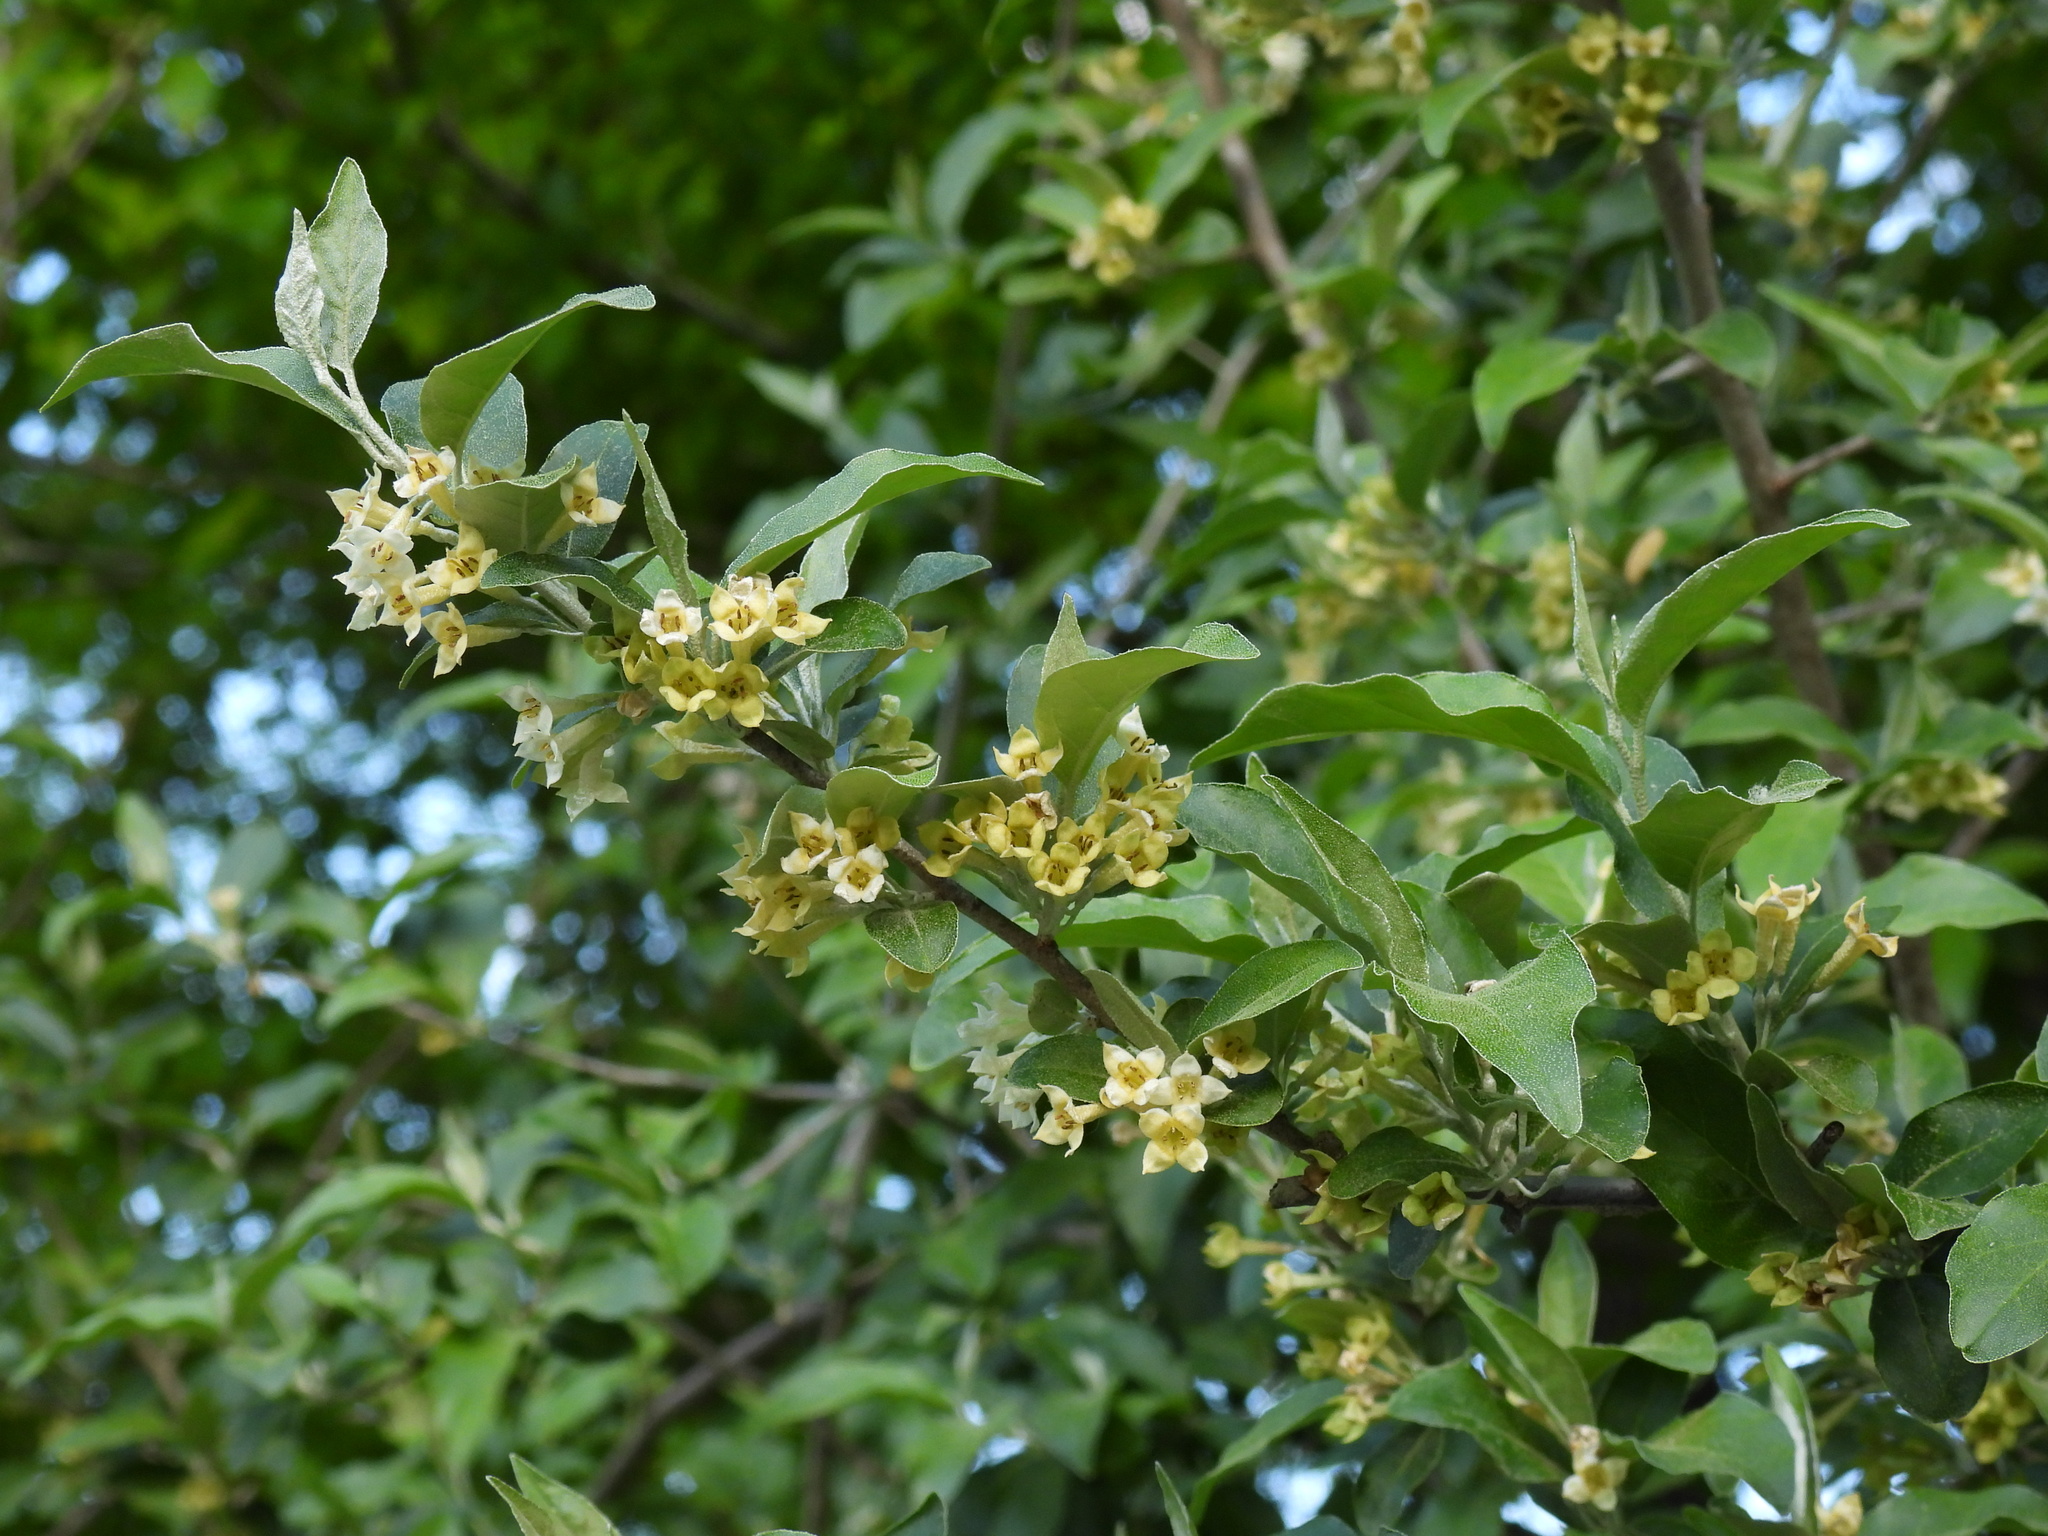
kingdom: Plantae
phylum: Tracheophyta
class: Magnoliopsida
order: Rosales
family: Elaeagnaceae
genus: Elaeagnus
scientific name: Elaeagnus umbellata
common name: Autumn olive
